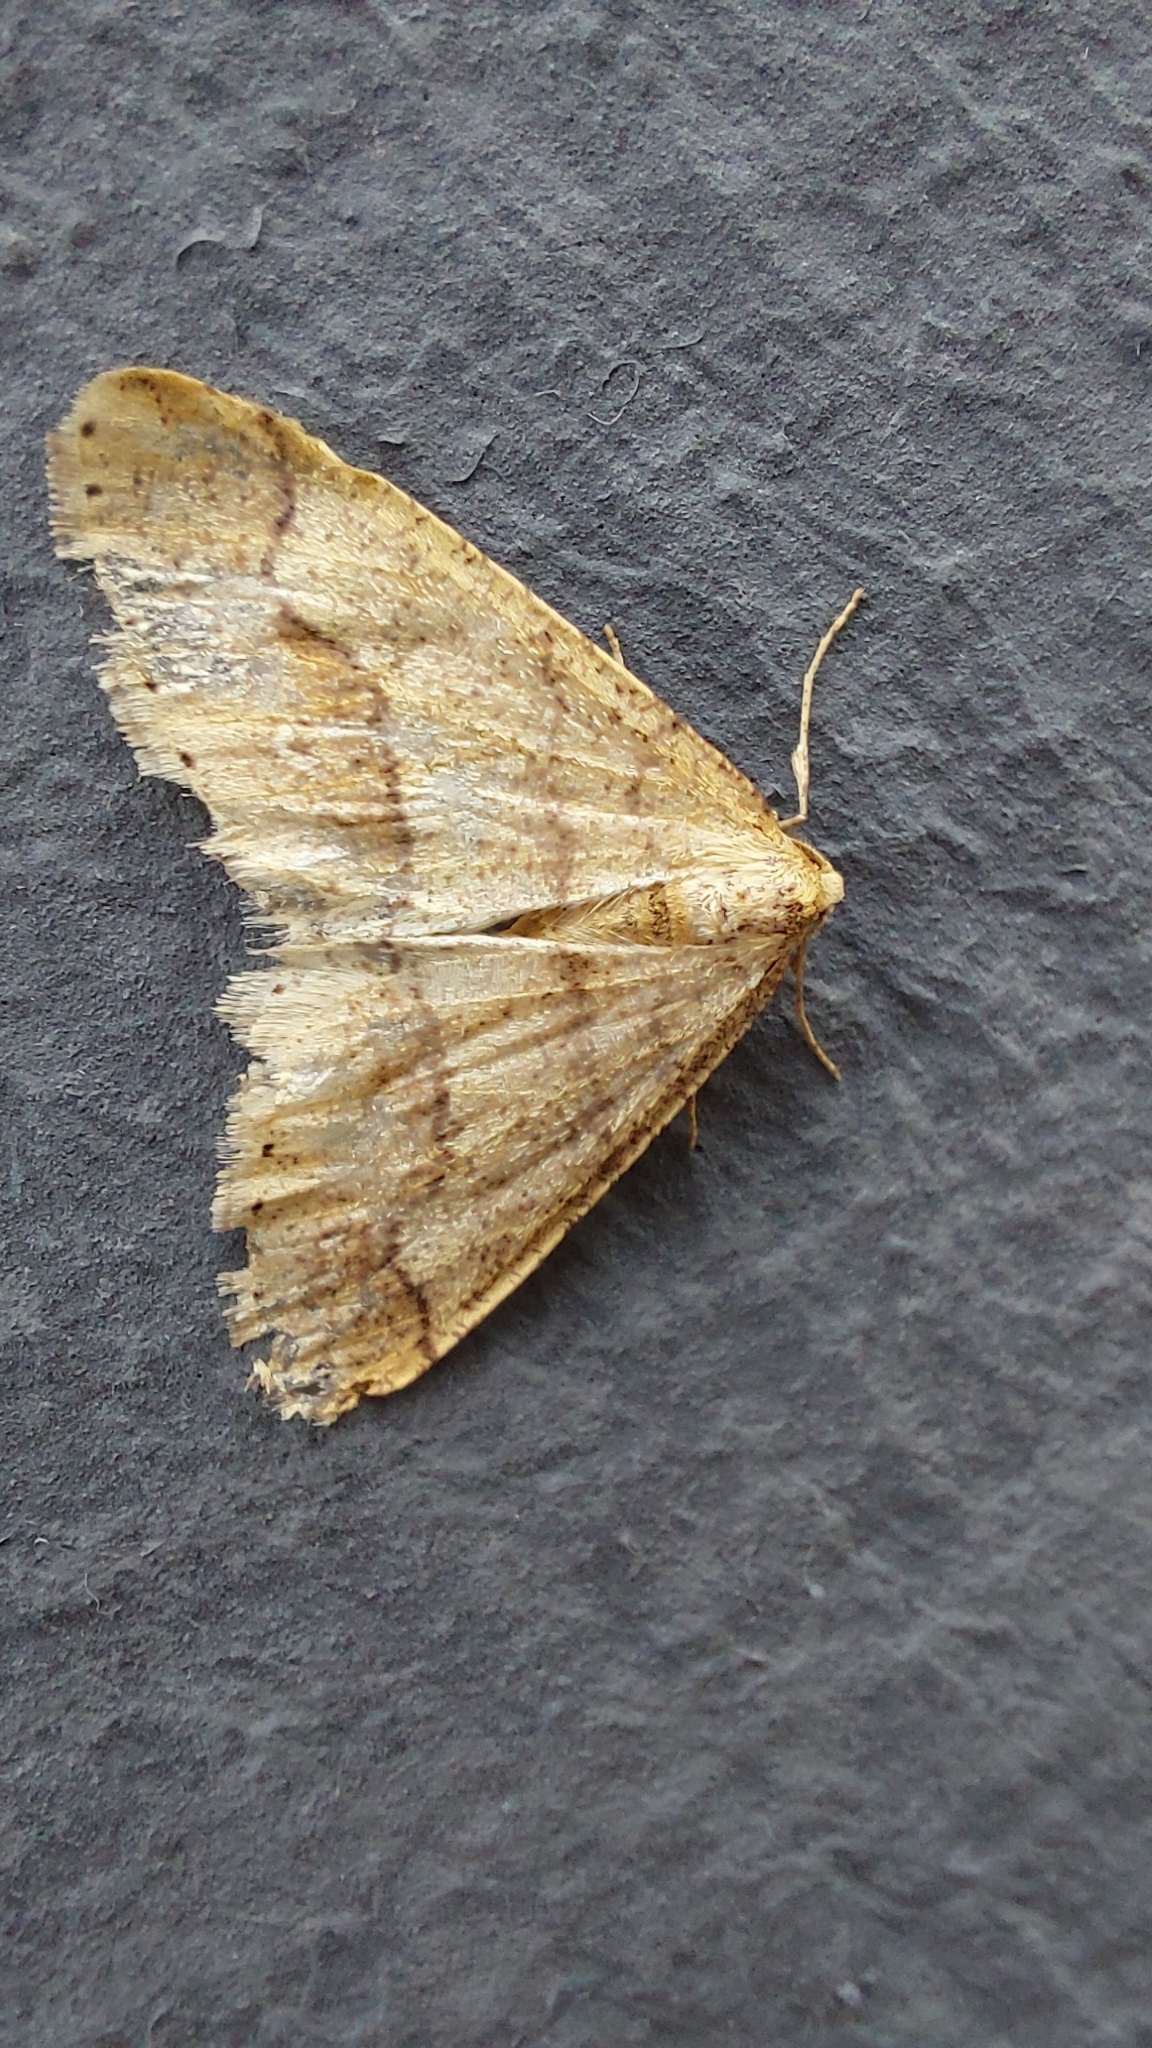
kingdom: Animalia
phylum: Arthropoda
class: Insecta
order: Lepidoptera
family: Geometridae
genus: Agriopis
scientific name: Agriopis marginaria
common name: Dotted border
